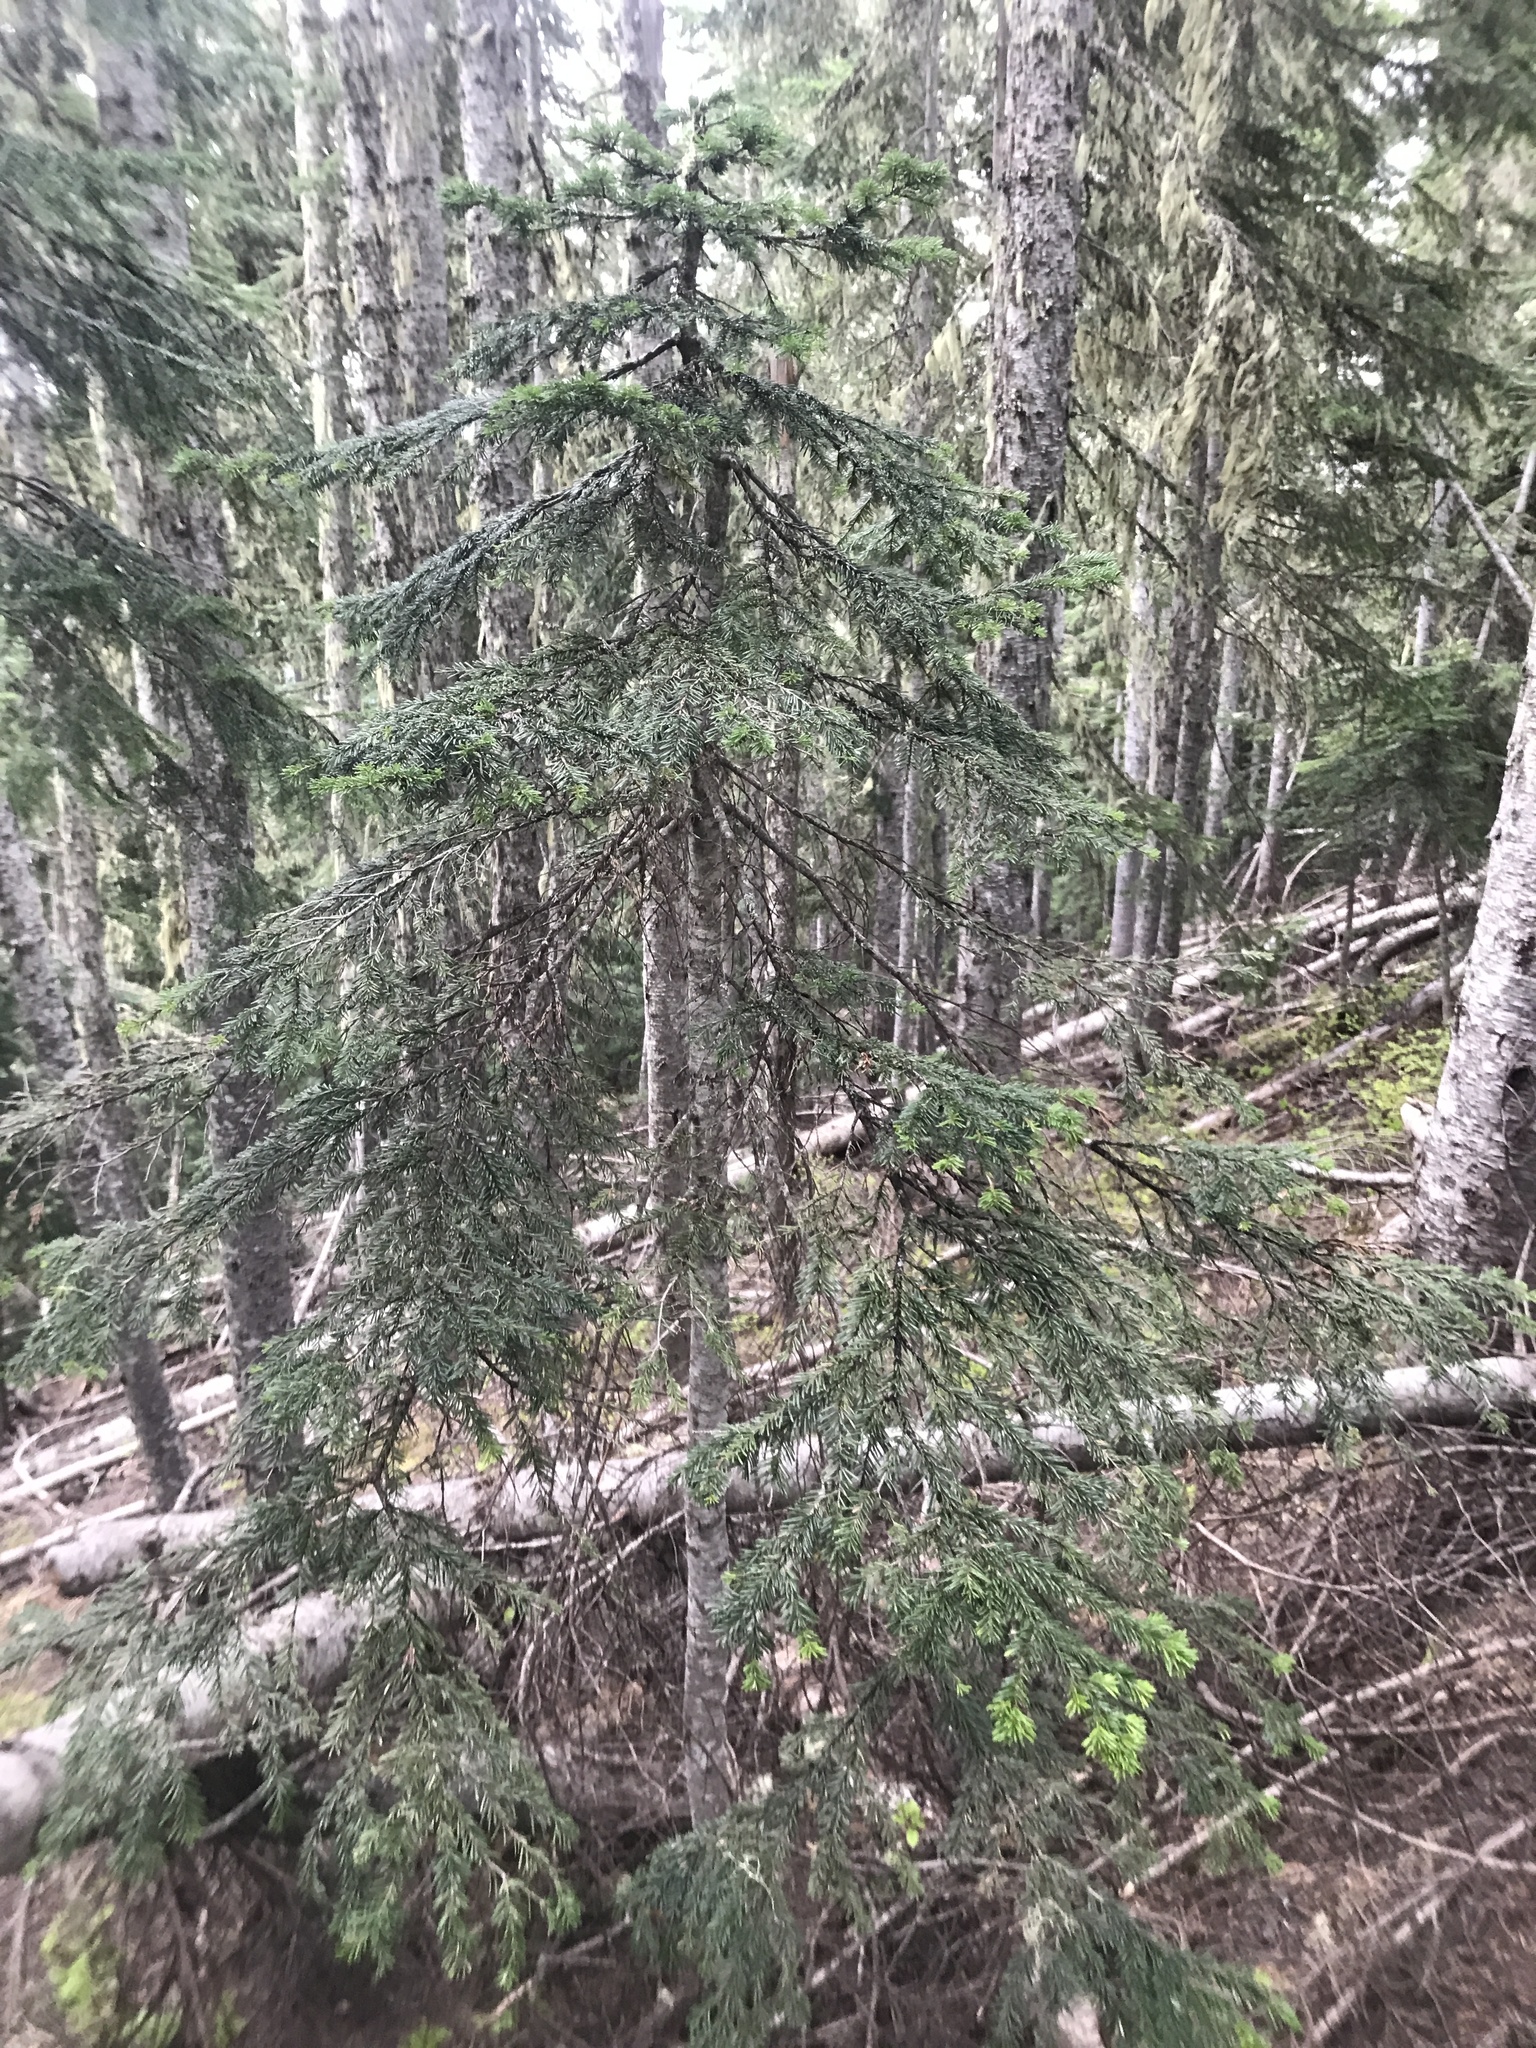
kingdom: Plantae
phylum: Tracheophyta
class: Pinopsida
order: Pinales
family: Pinaceae
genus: Abies
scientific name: Abies amabilis
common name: Pacific silver fir
